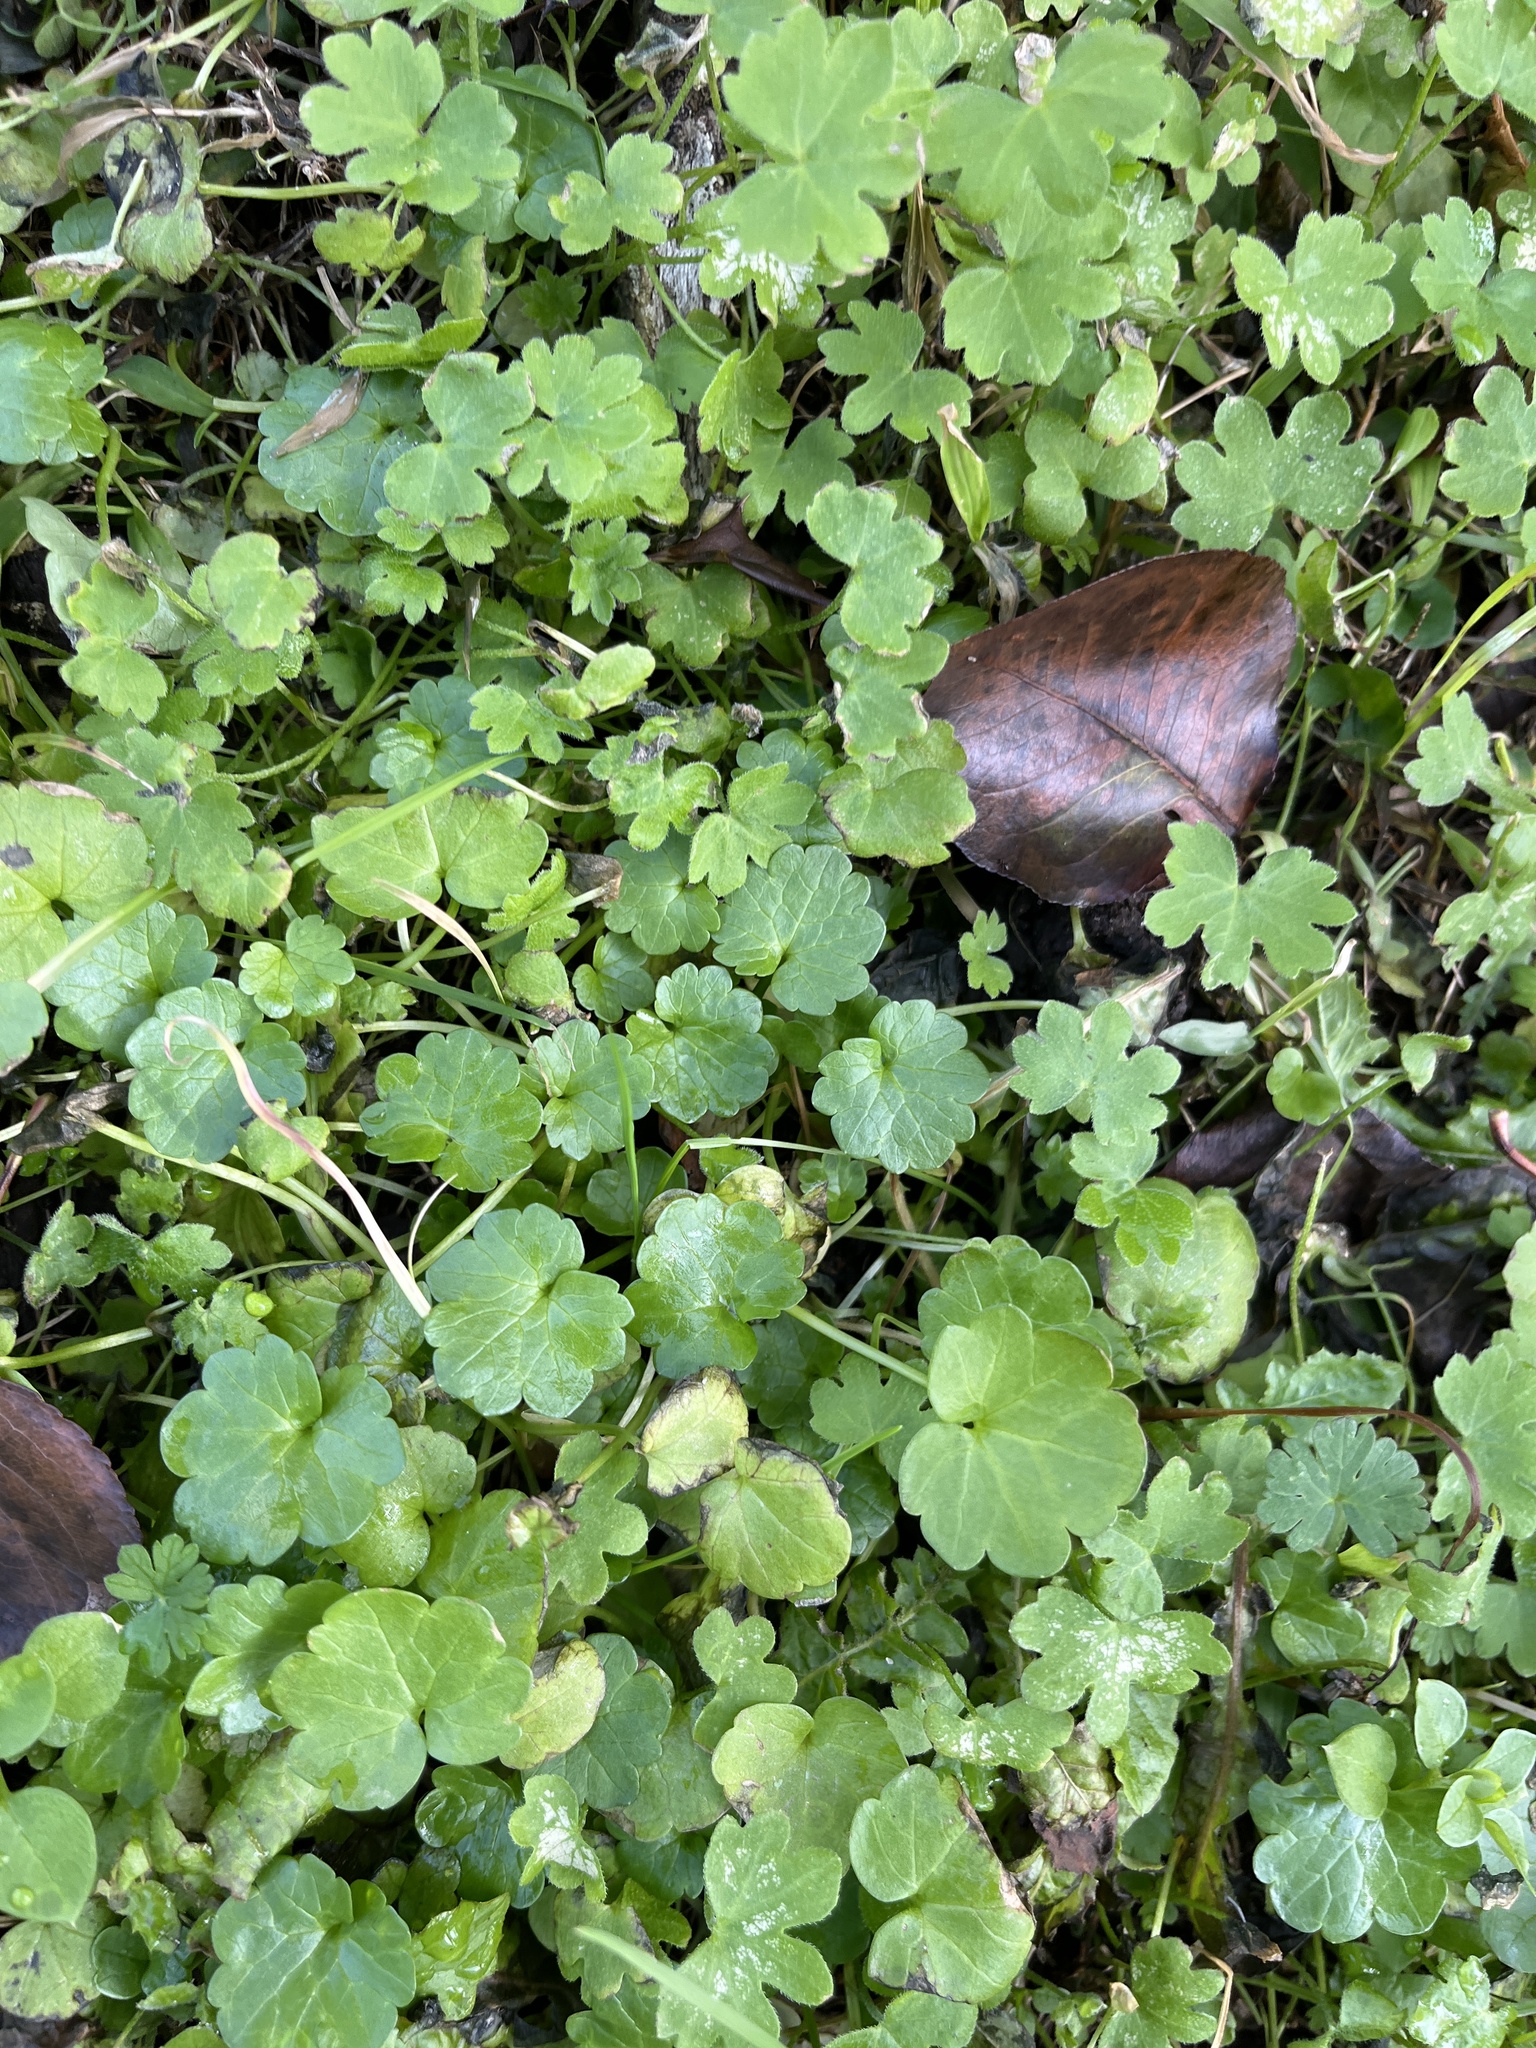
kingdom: Plantae
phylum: Tracheophyta
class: Magnoliopsida
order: Apiales
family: Apiaceae
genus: Bowlesia
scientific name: Bowlesia incana
